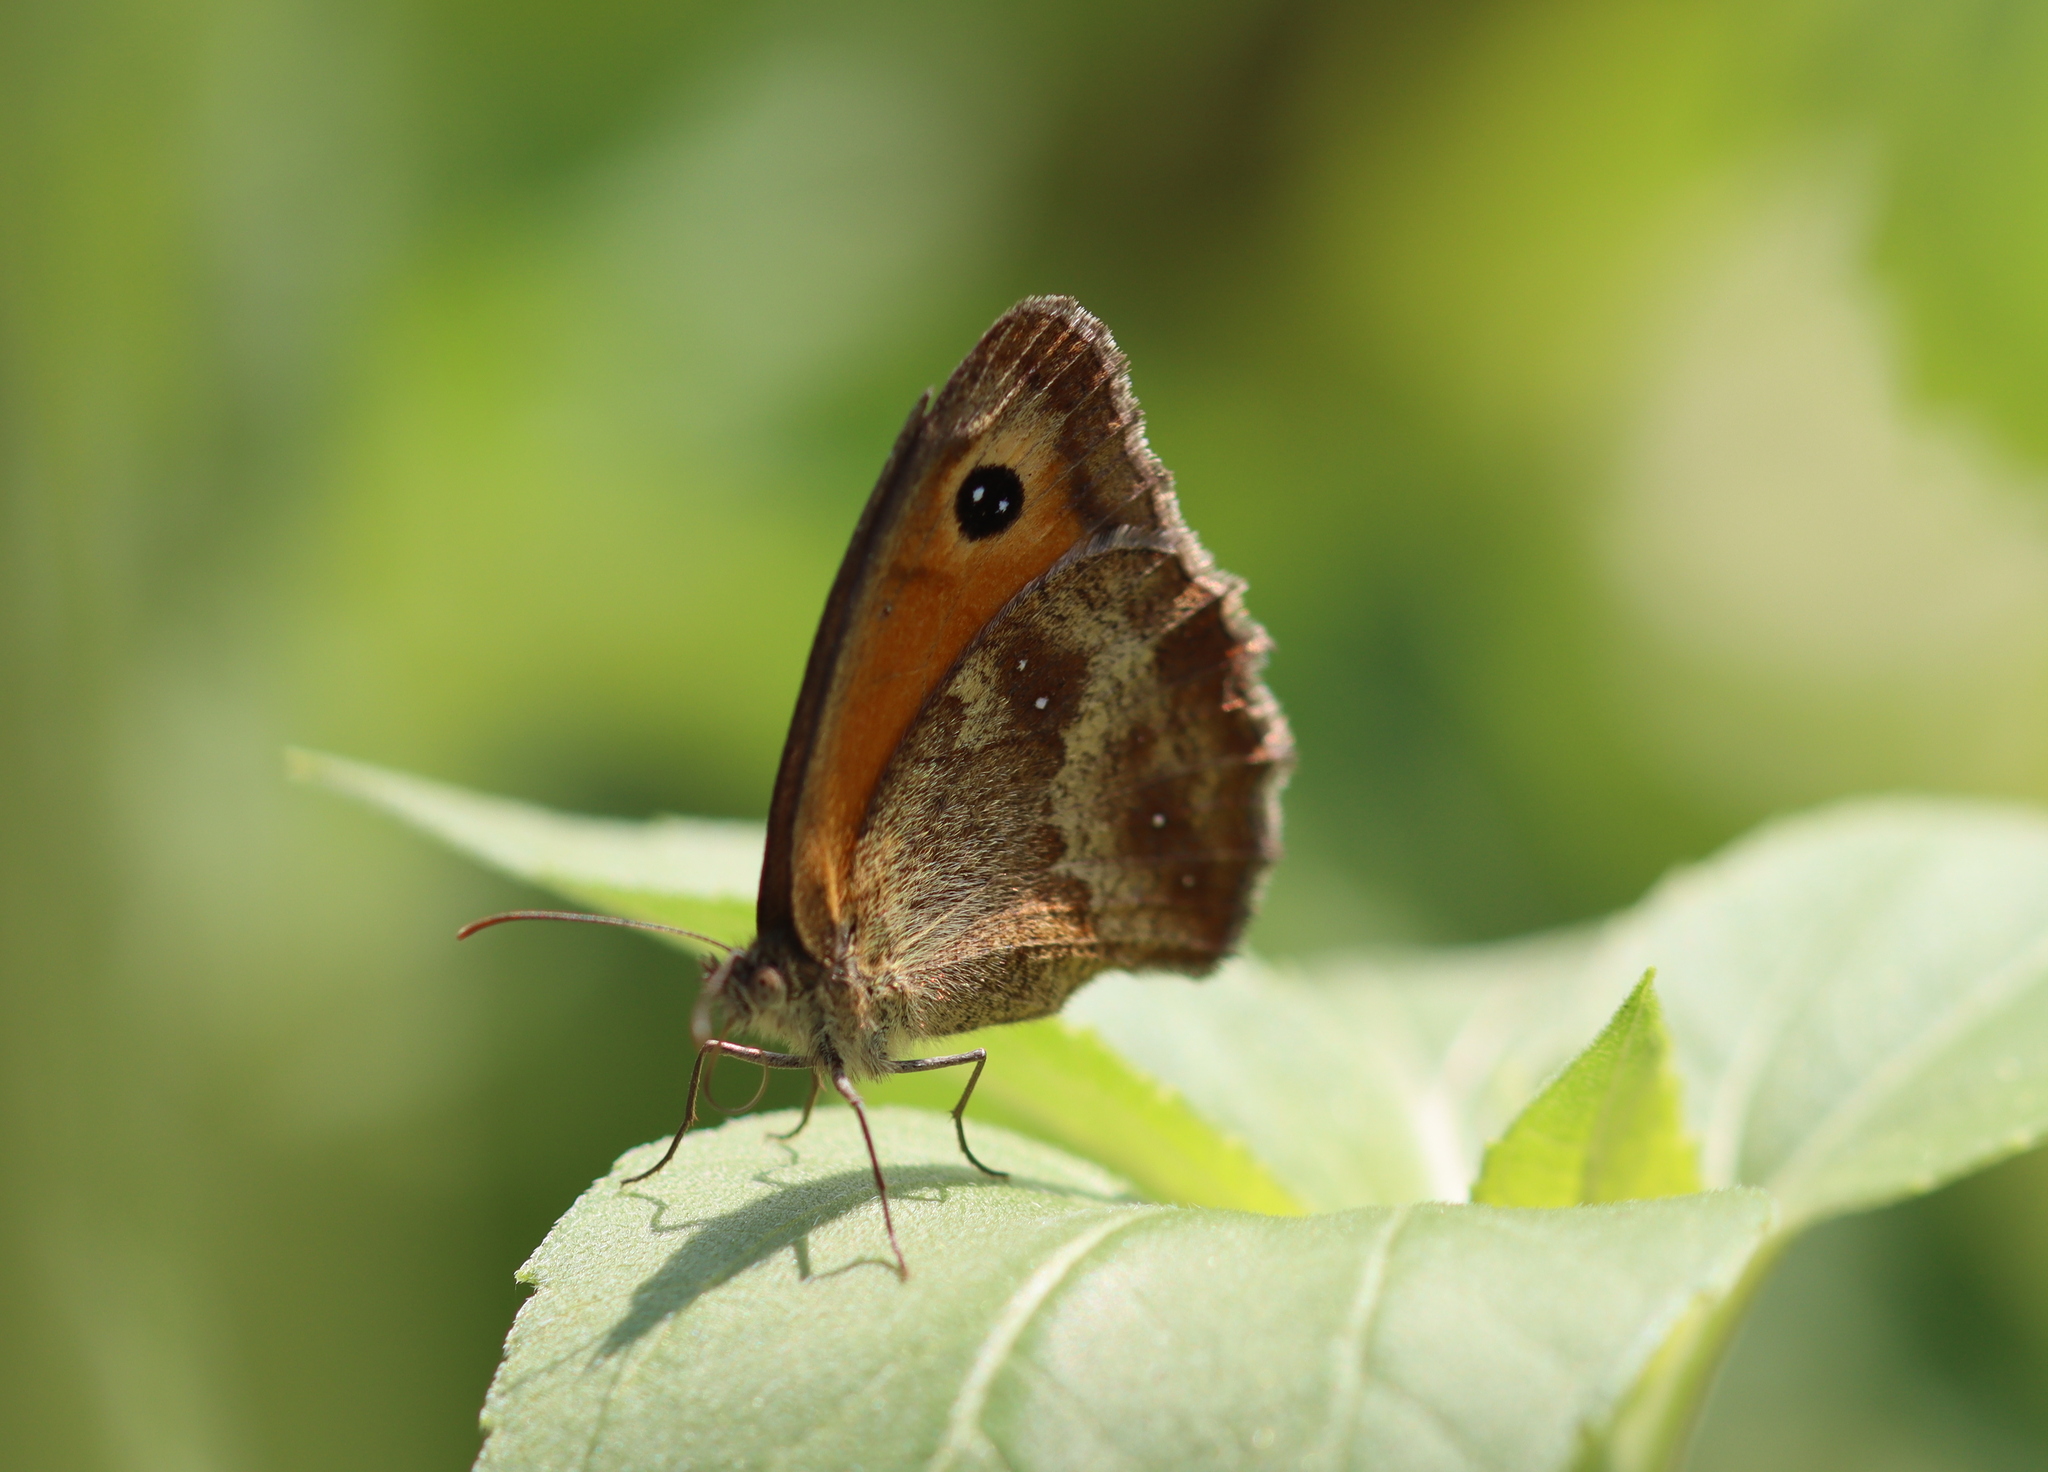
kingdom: Animalia
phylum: Arthropoda
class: Insecta
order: Lepidoptera
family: Nymphalidae
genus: Pyronia
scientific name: Pyronia tithonus
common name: Gatekeeper
